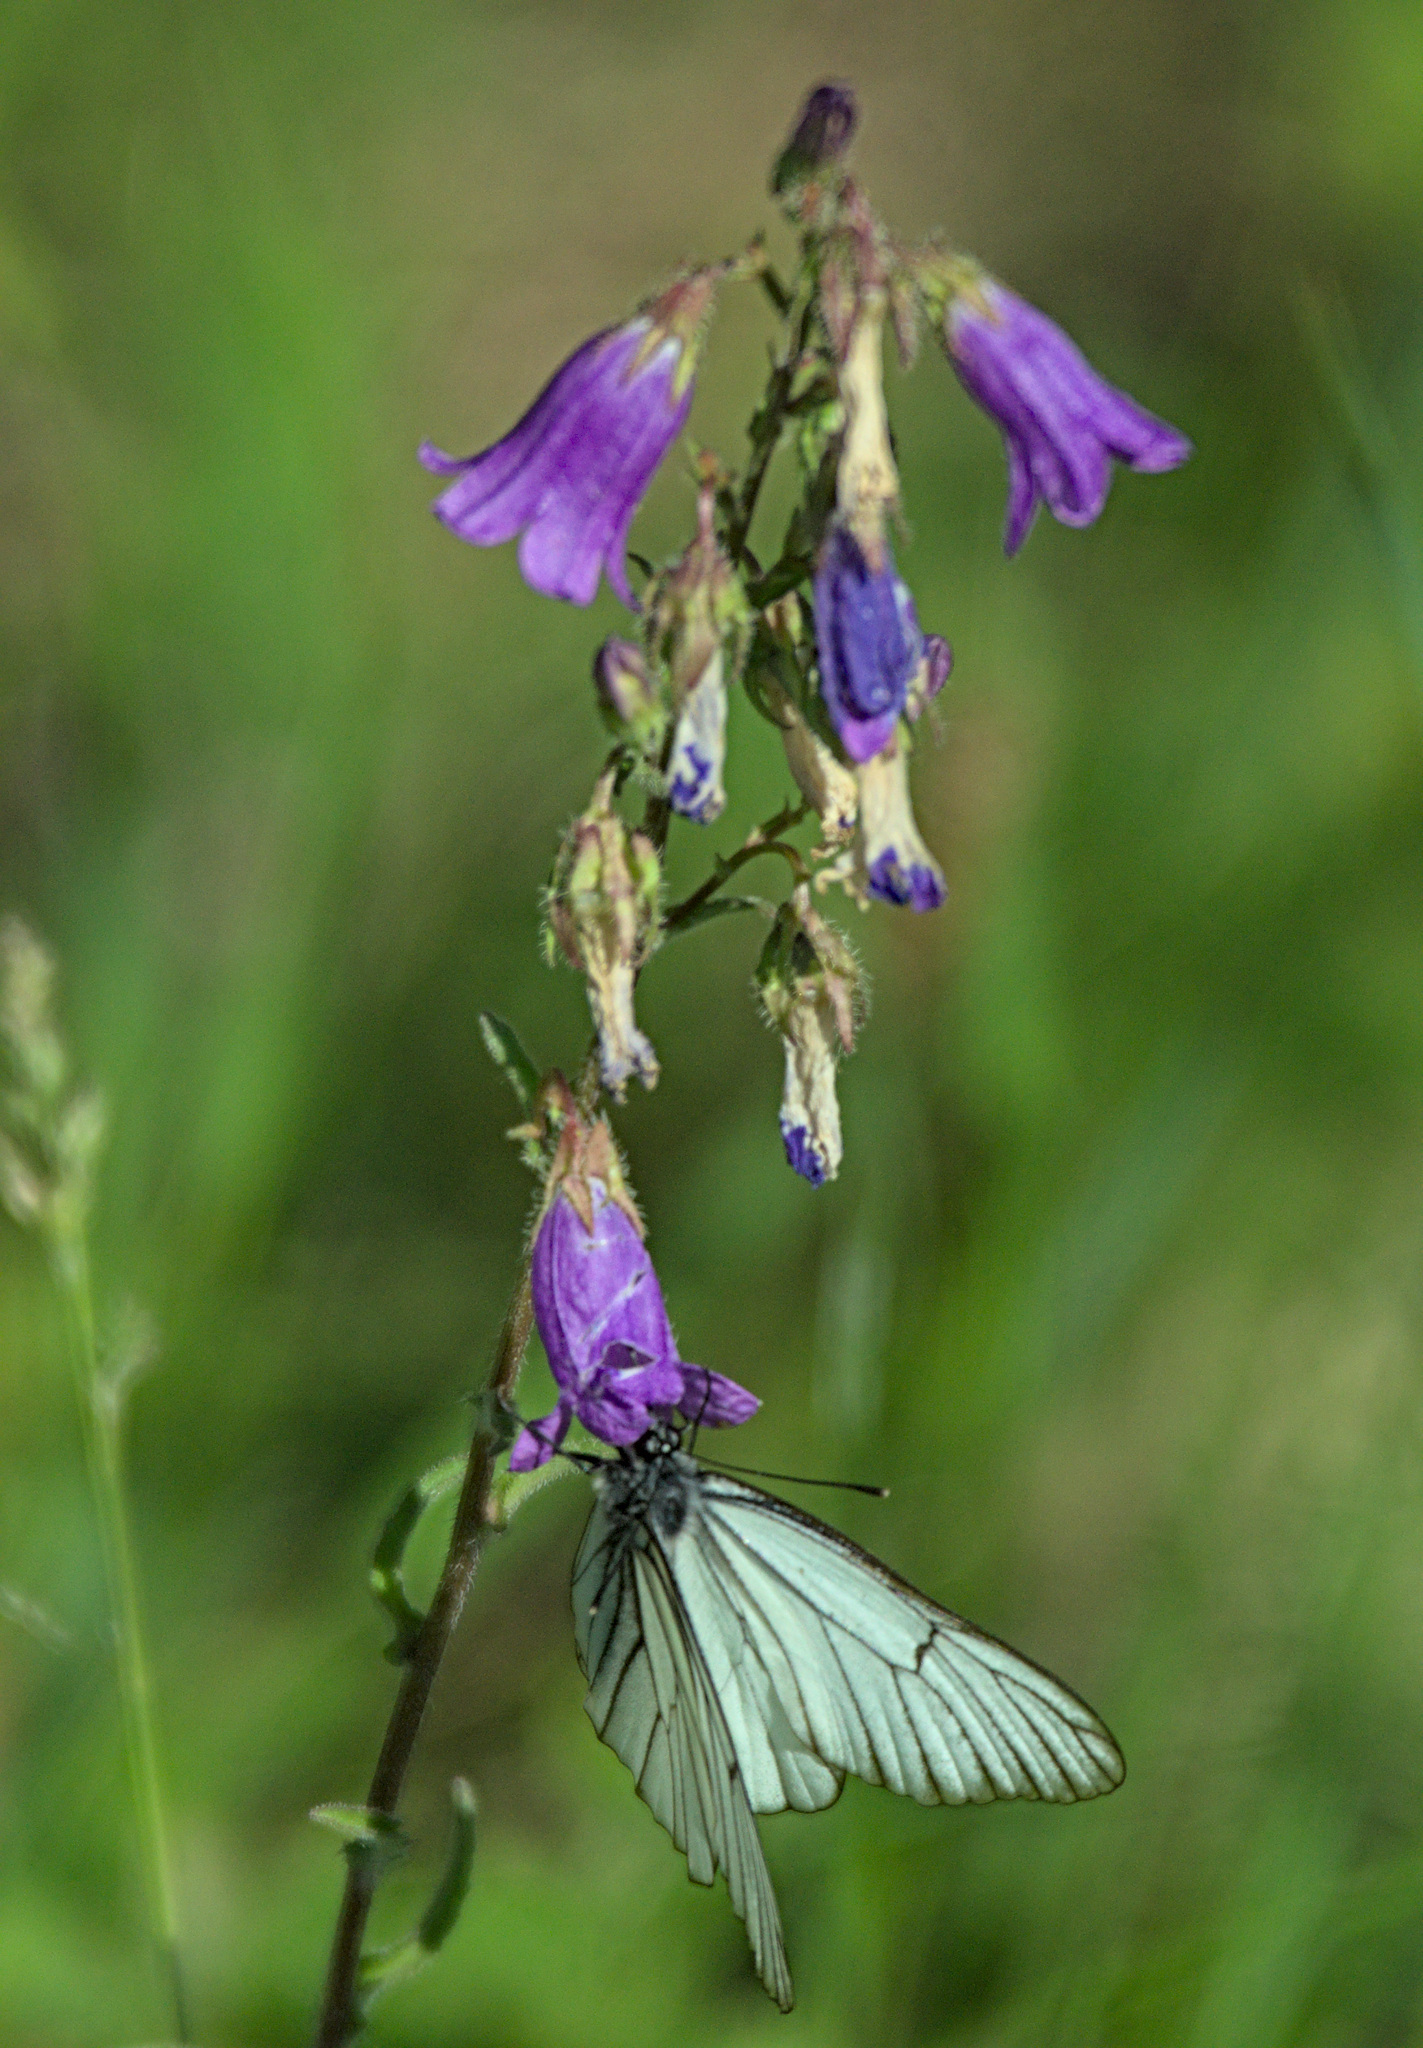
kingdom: Plantae
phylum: Tracheophyta
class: Magnoliopsida
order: Asterales
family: Campanulaceae
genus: Campanula
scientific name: Campanula sibirica
